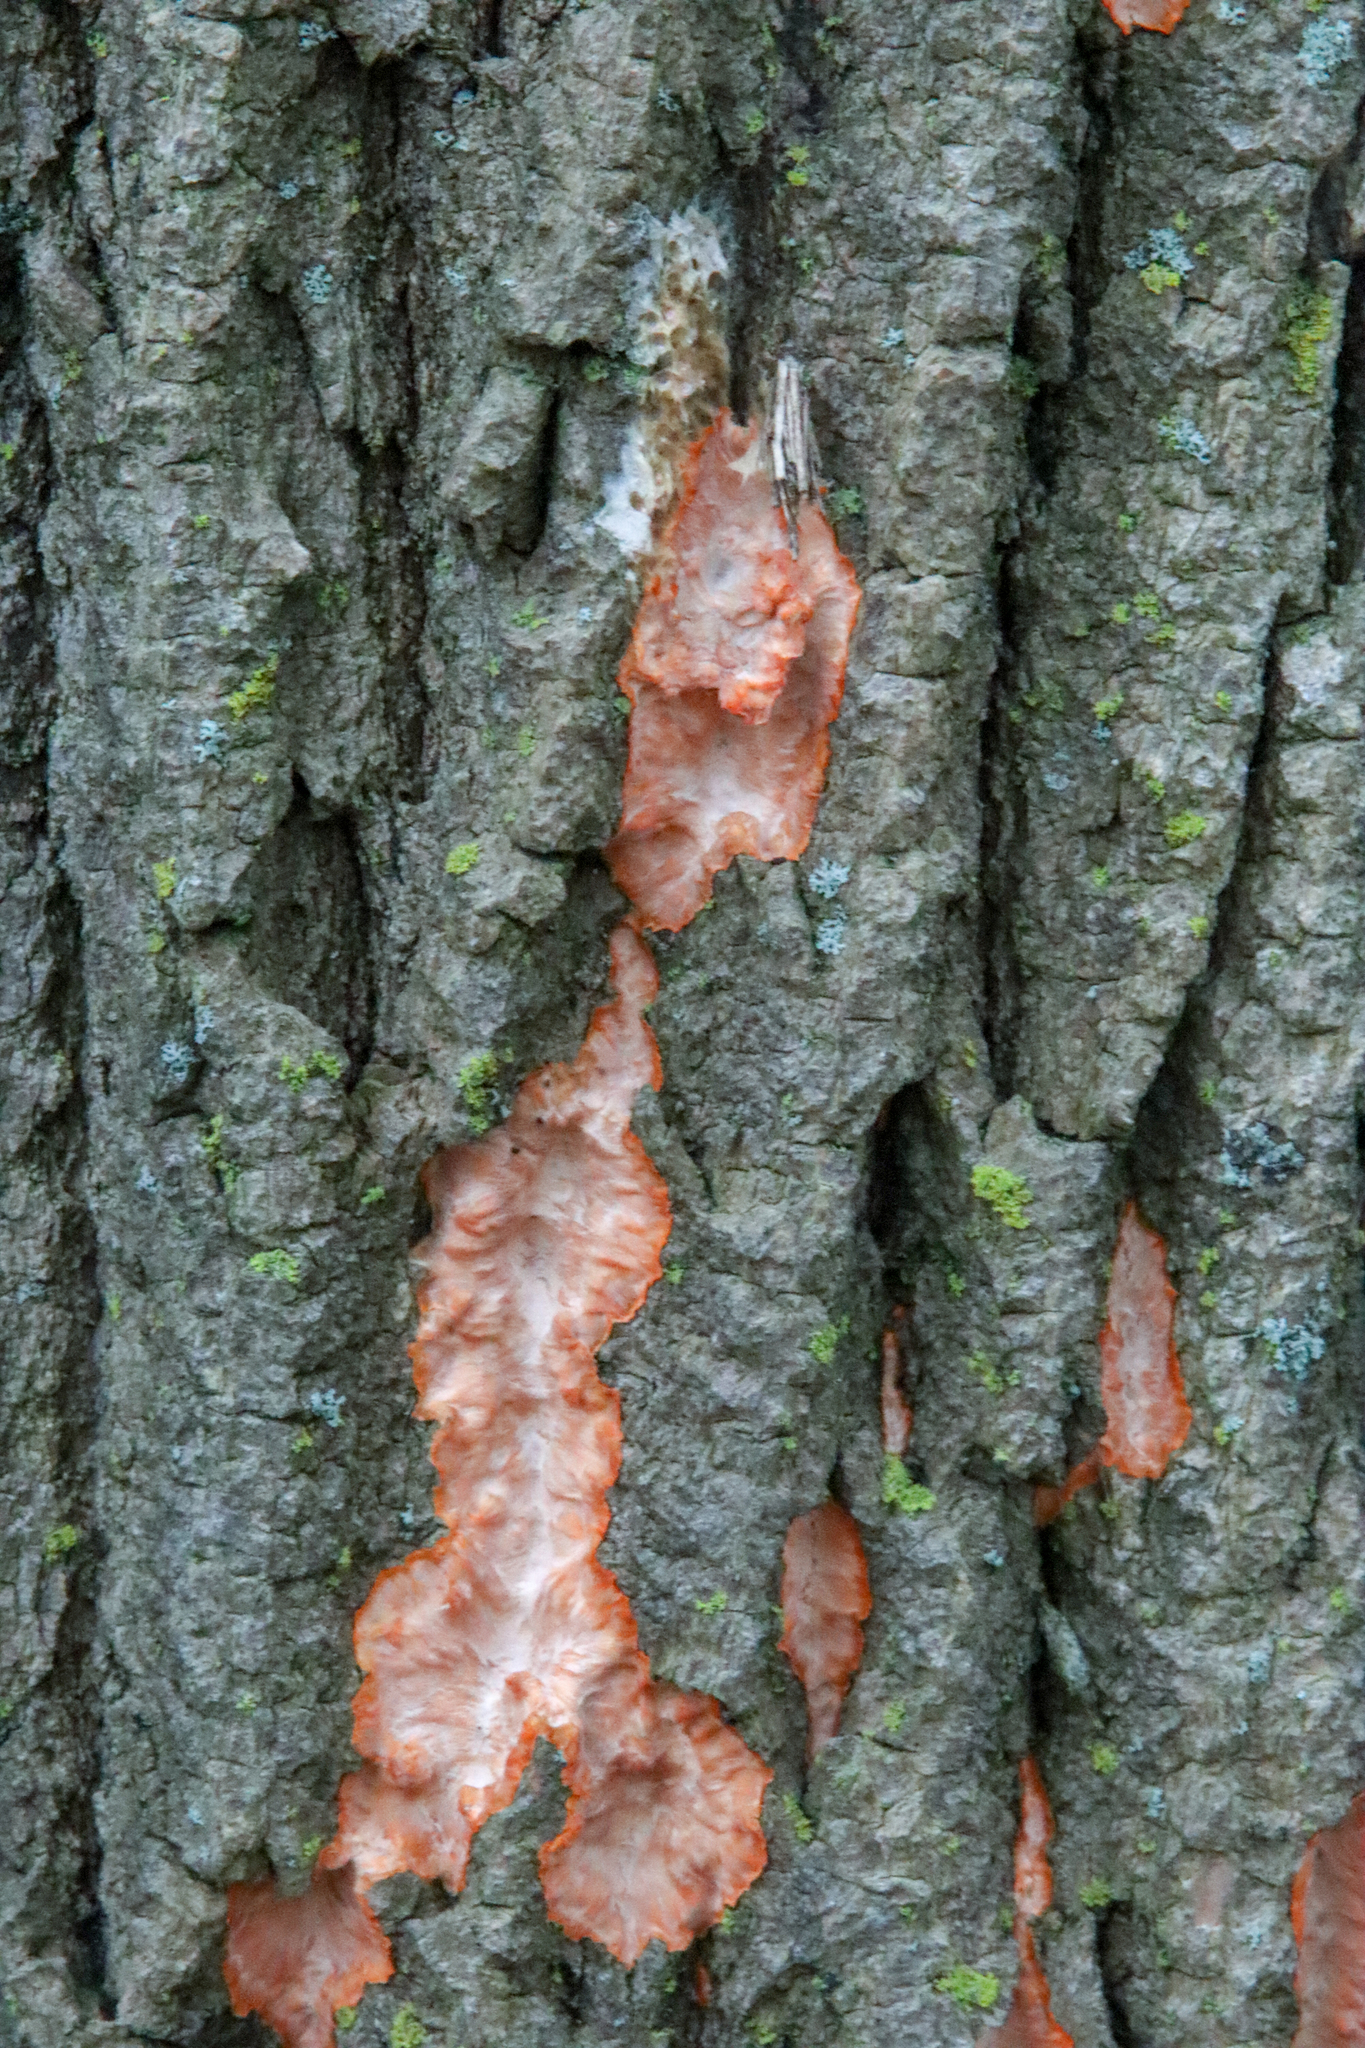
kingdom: Fungi
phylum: Basidiomycota
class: Agaricomycetes
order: Polyporales
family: Meruliaceae
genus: Phlebia
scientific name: Phlebia radiata
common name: Wrinkled crust
